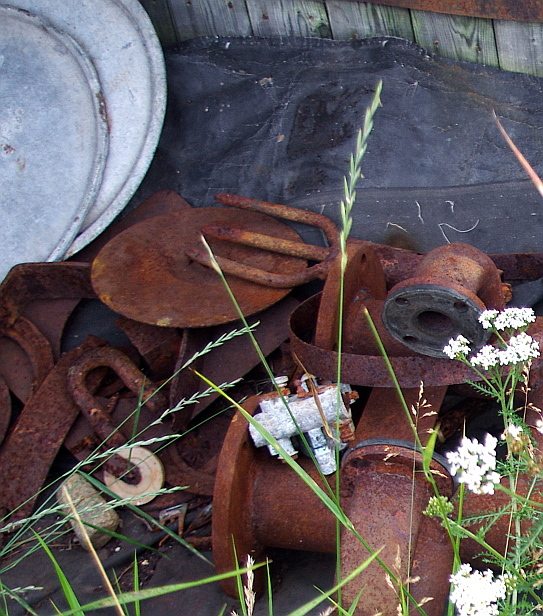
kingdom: Plantae
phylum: Tracheophyta
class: Liliopsida
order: Poales
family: Poaceae
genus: Elymus
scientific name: Elymus repens
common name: Quackgrass
